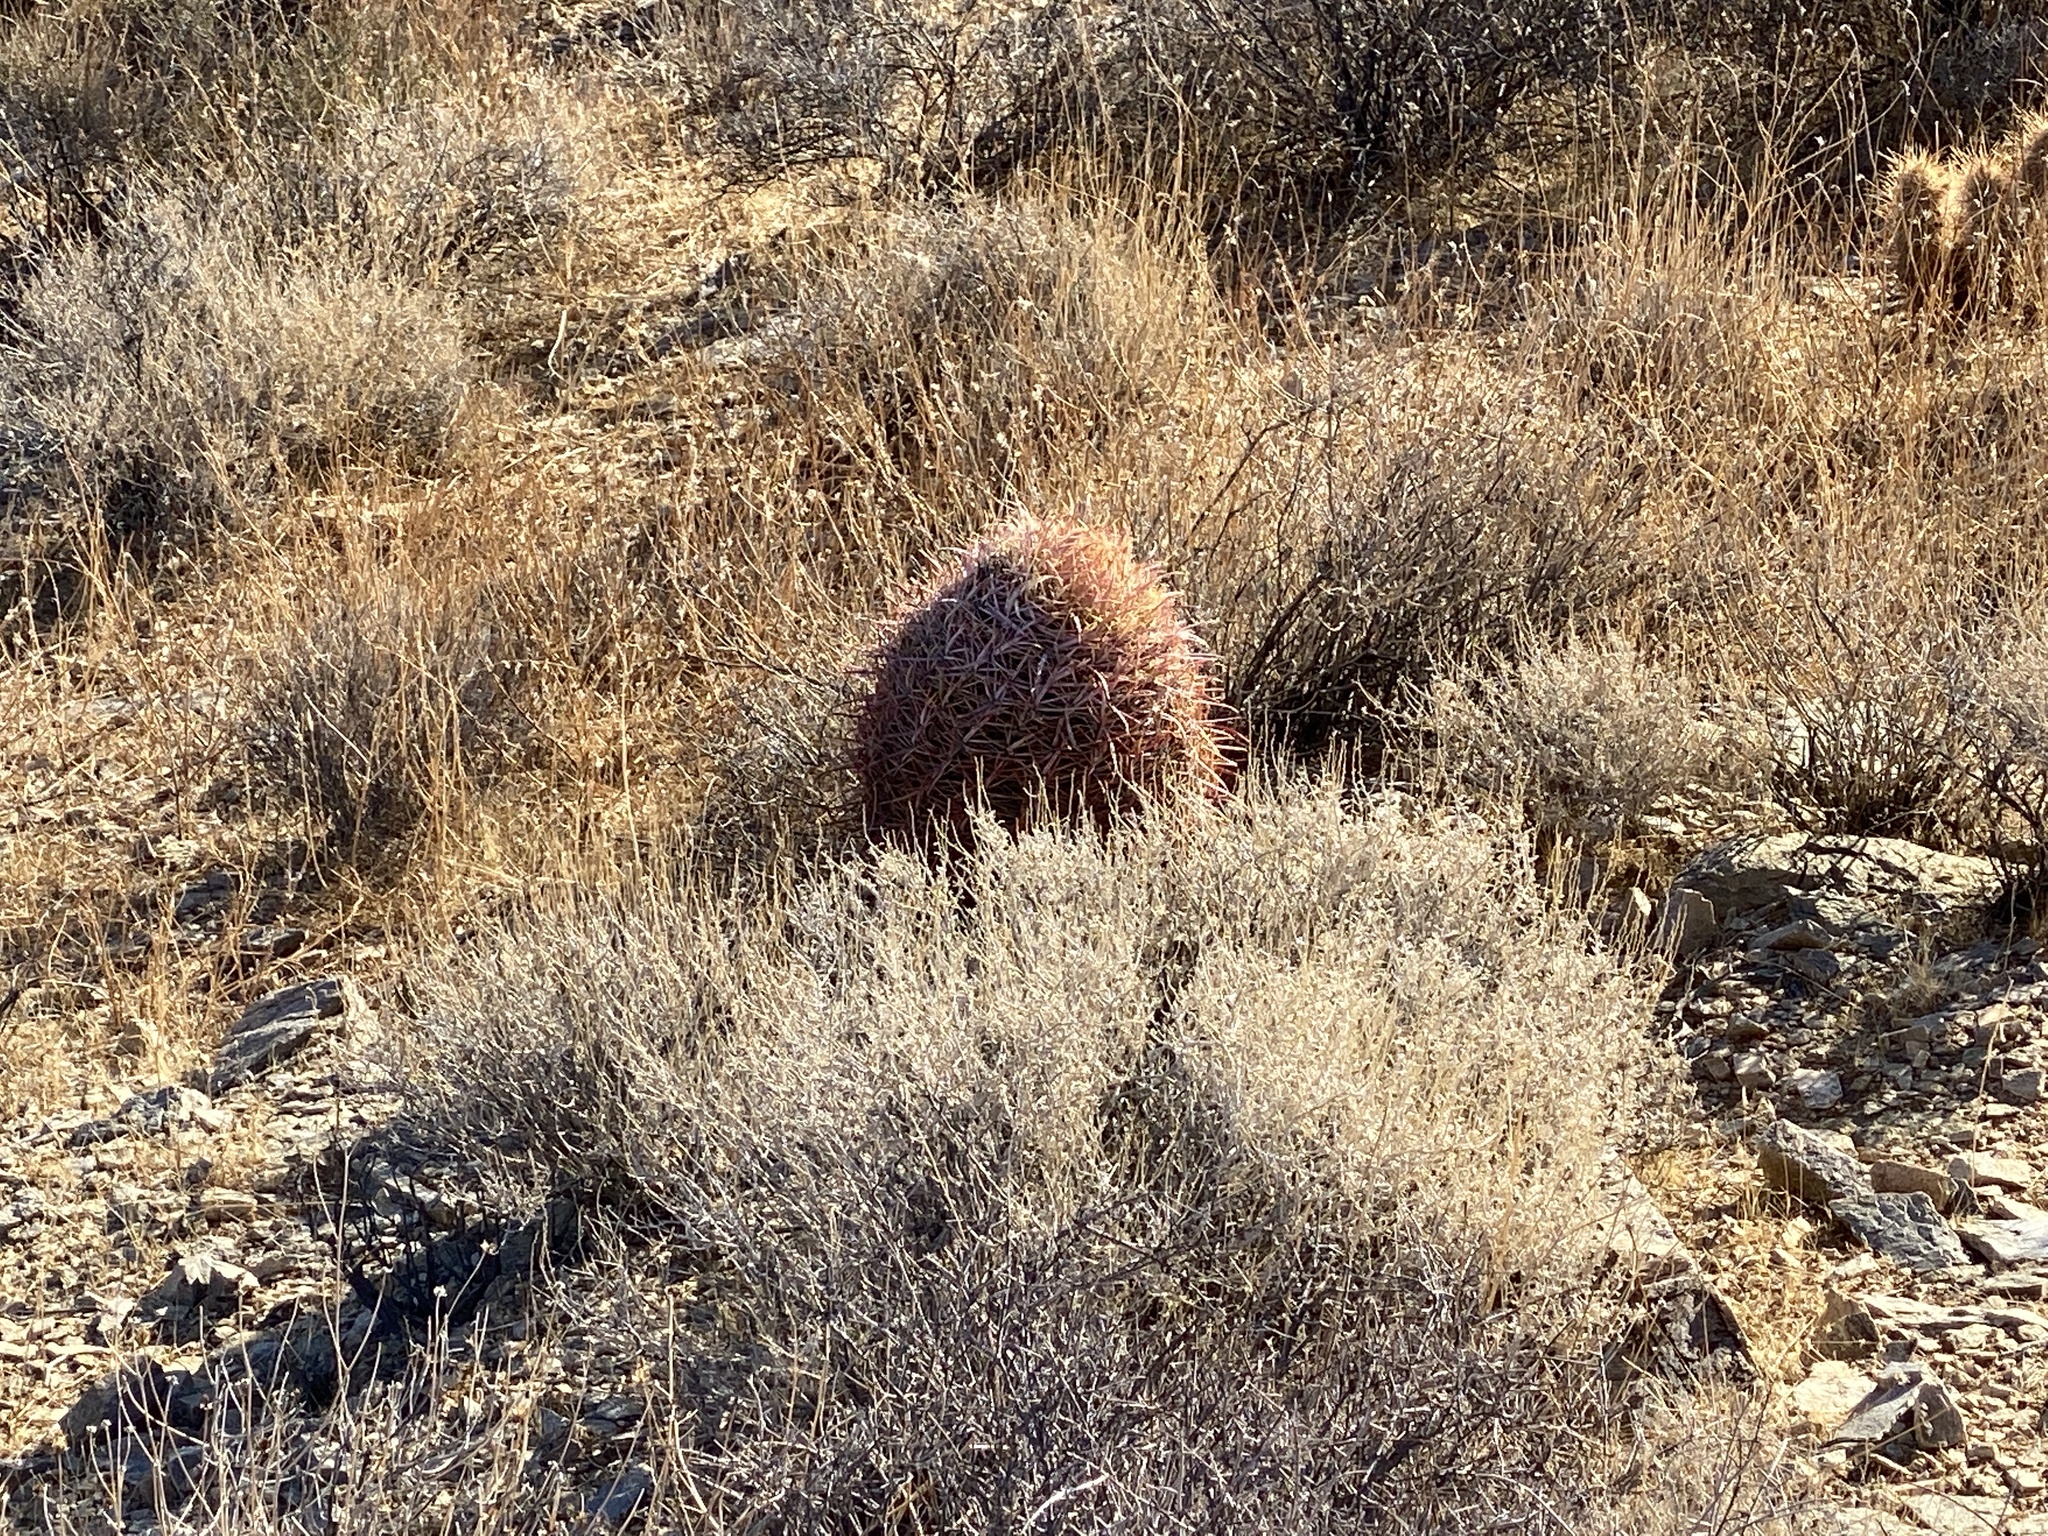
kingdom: Plantae
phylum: Tracheophyta
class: Magnoliopsida
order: Caryophyllales
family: Cactaceae
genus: Ferocactus
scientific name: Ferocactus cylindraceus
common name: California barrel cactus
